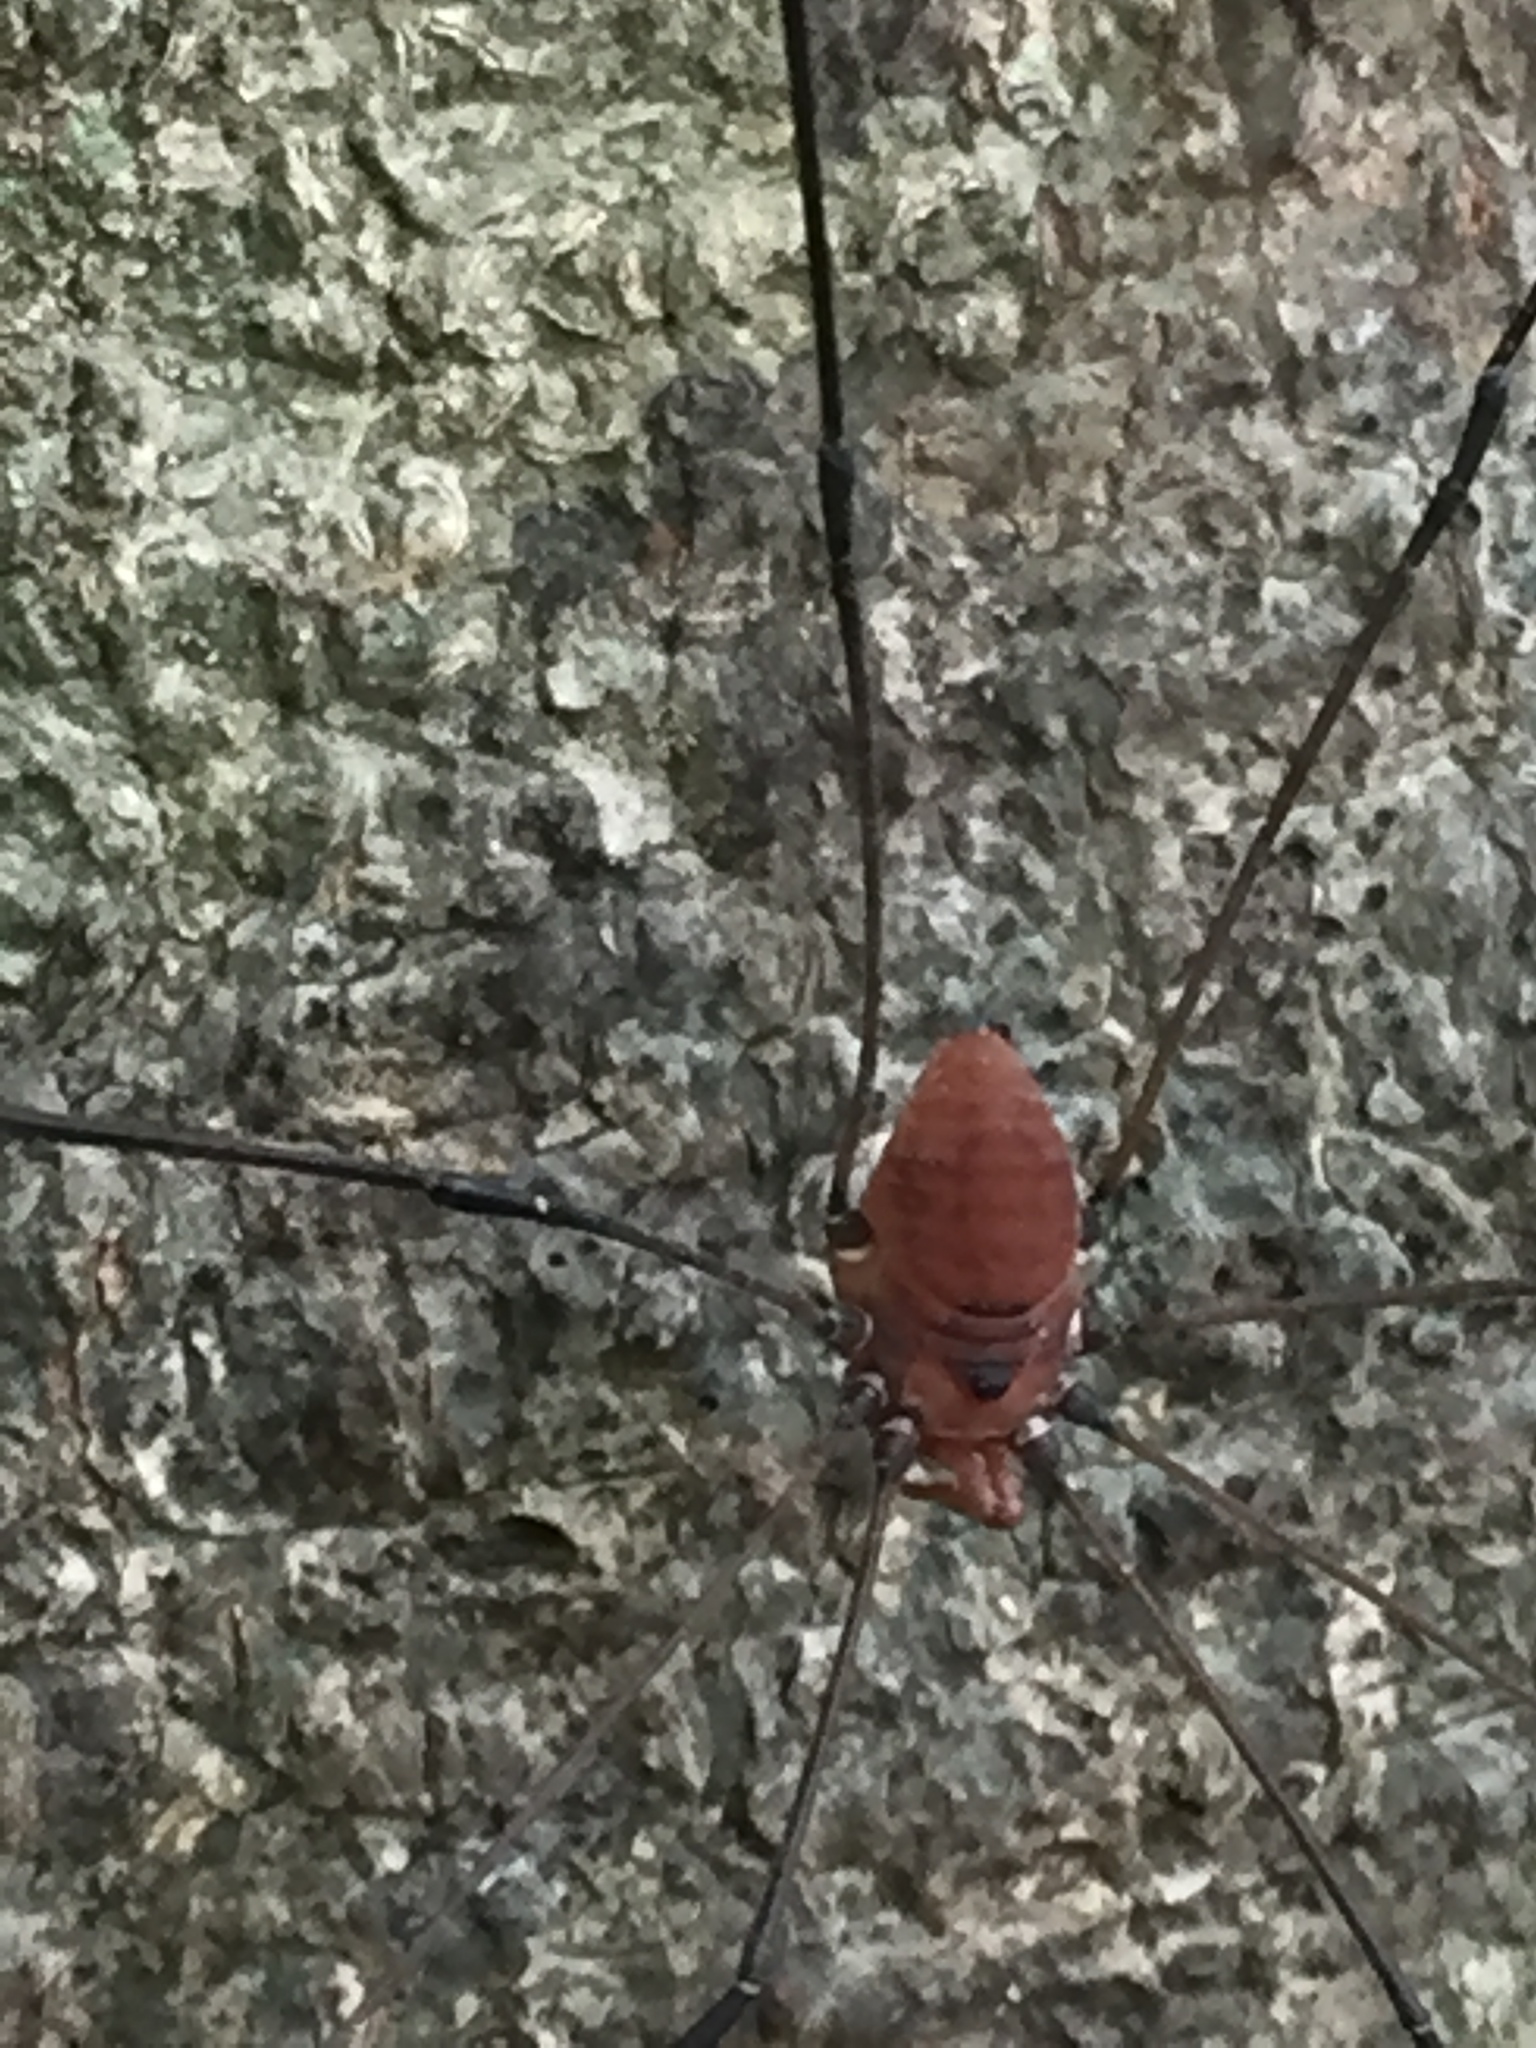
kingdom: Animalia
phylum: Arthropoda
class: Arachnida
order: Opiliones
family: Sclerosomatidae
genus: Leiobunum
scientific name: Leiobunum vittatum
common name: Eastern harvestman
